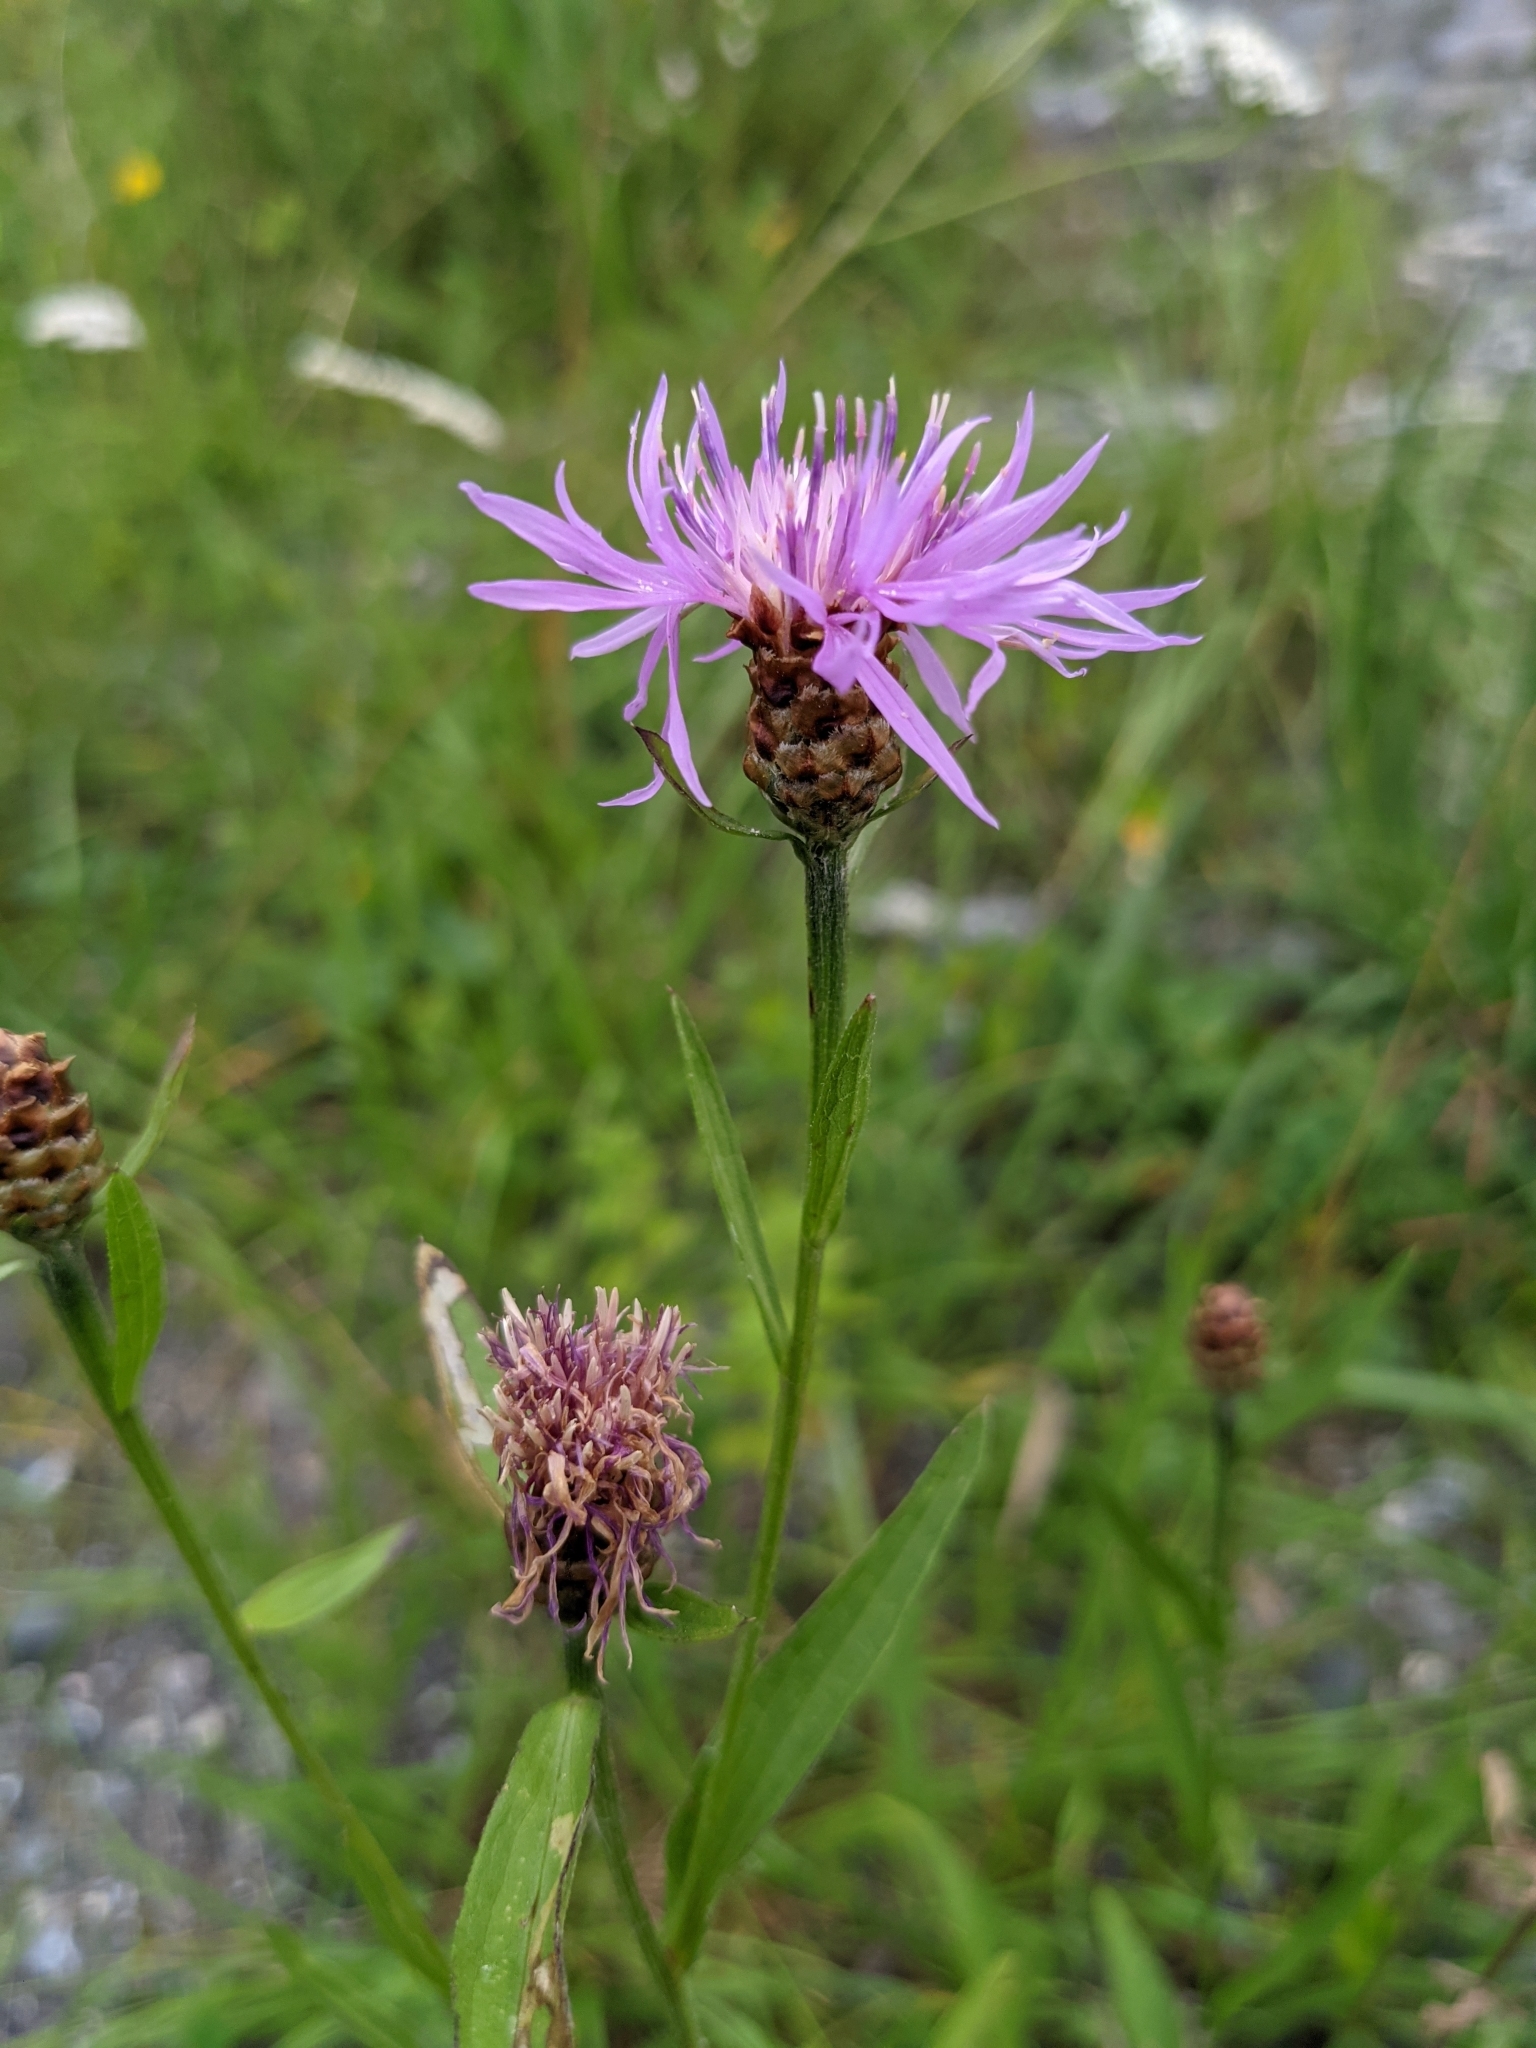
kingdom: Plantae
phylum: Tracheophyta
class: Magnoliopsida
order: Asterales
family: Asteraceae
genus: Centaurea
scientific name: Centaurea jacea
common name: Brown knapweed
